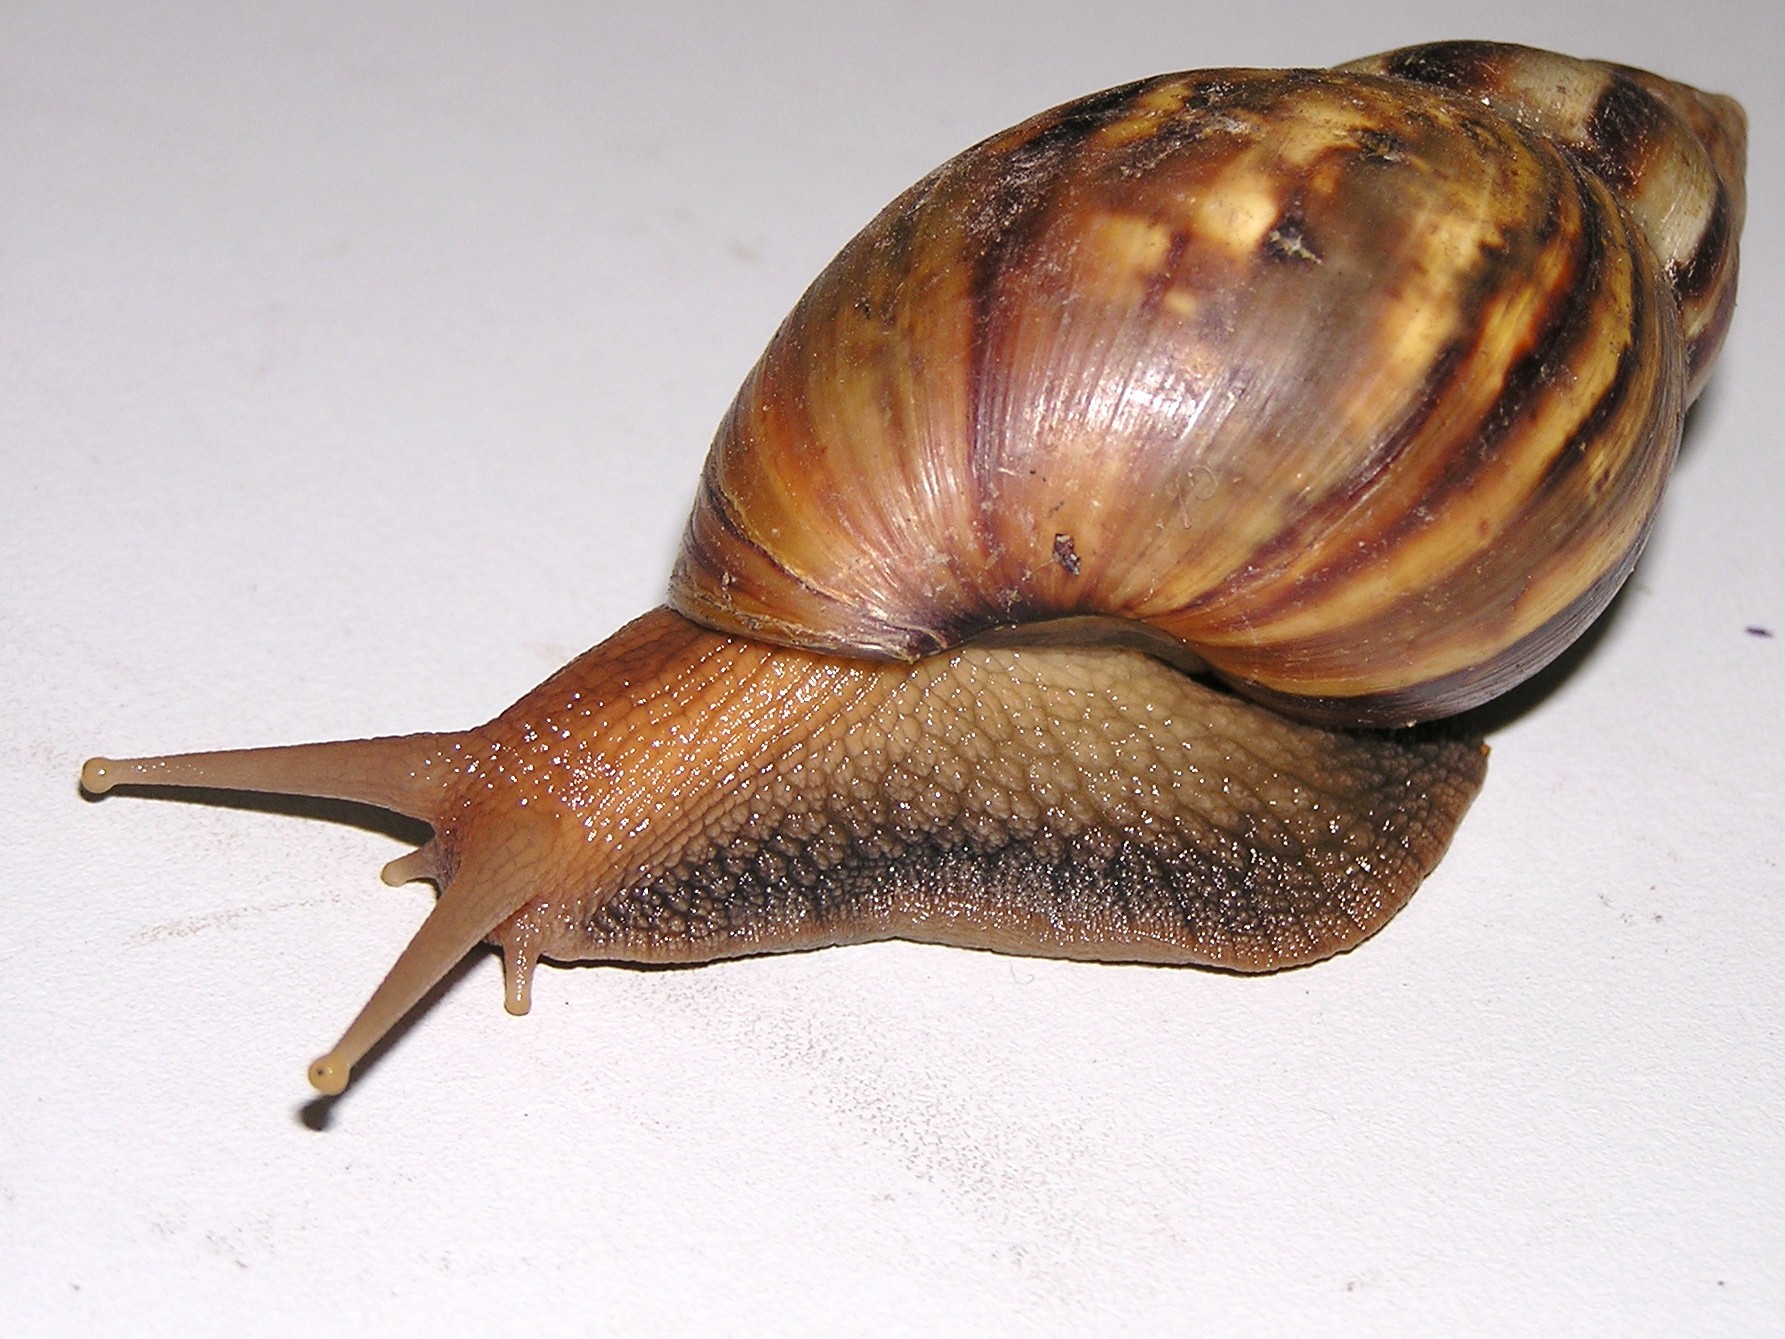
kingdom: Animalia
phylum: Mollusca
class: Gastropoda
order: Stylommatophora
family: Achatinidae
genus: Lissachatina
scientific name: Lissachatina fulica
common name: Giant african snail
